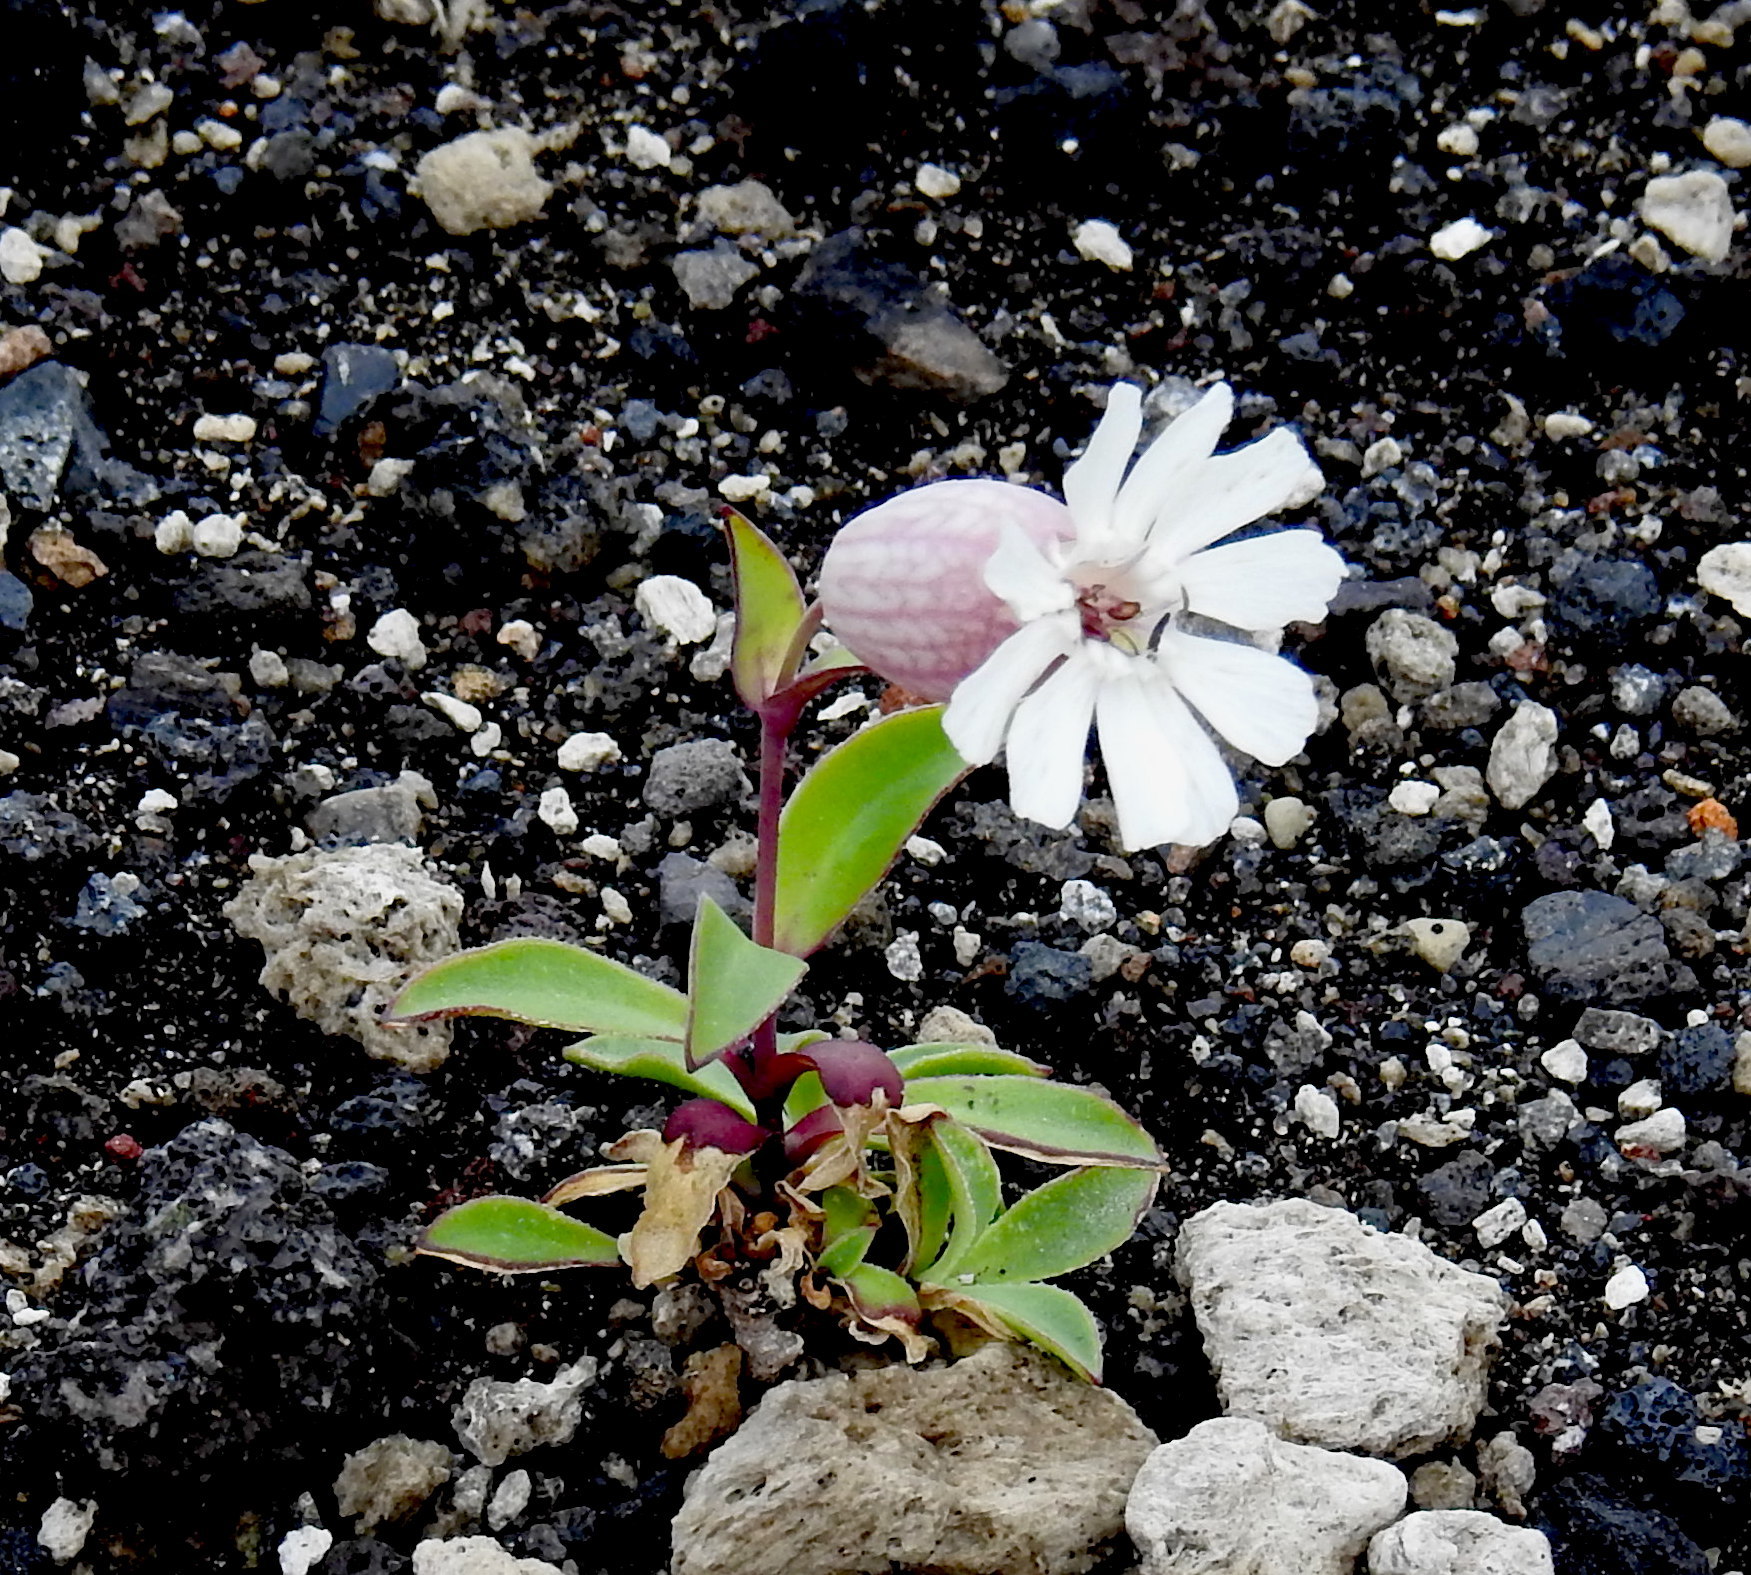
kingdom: Plantae
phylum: Tracheophyta
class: Magnoliopsida
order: Caryophyllales
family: Caryophyllaceae
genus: Silene
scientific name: Silene uniflora
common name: Sea campion
